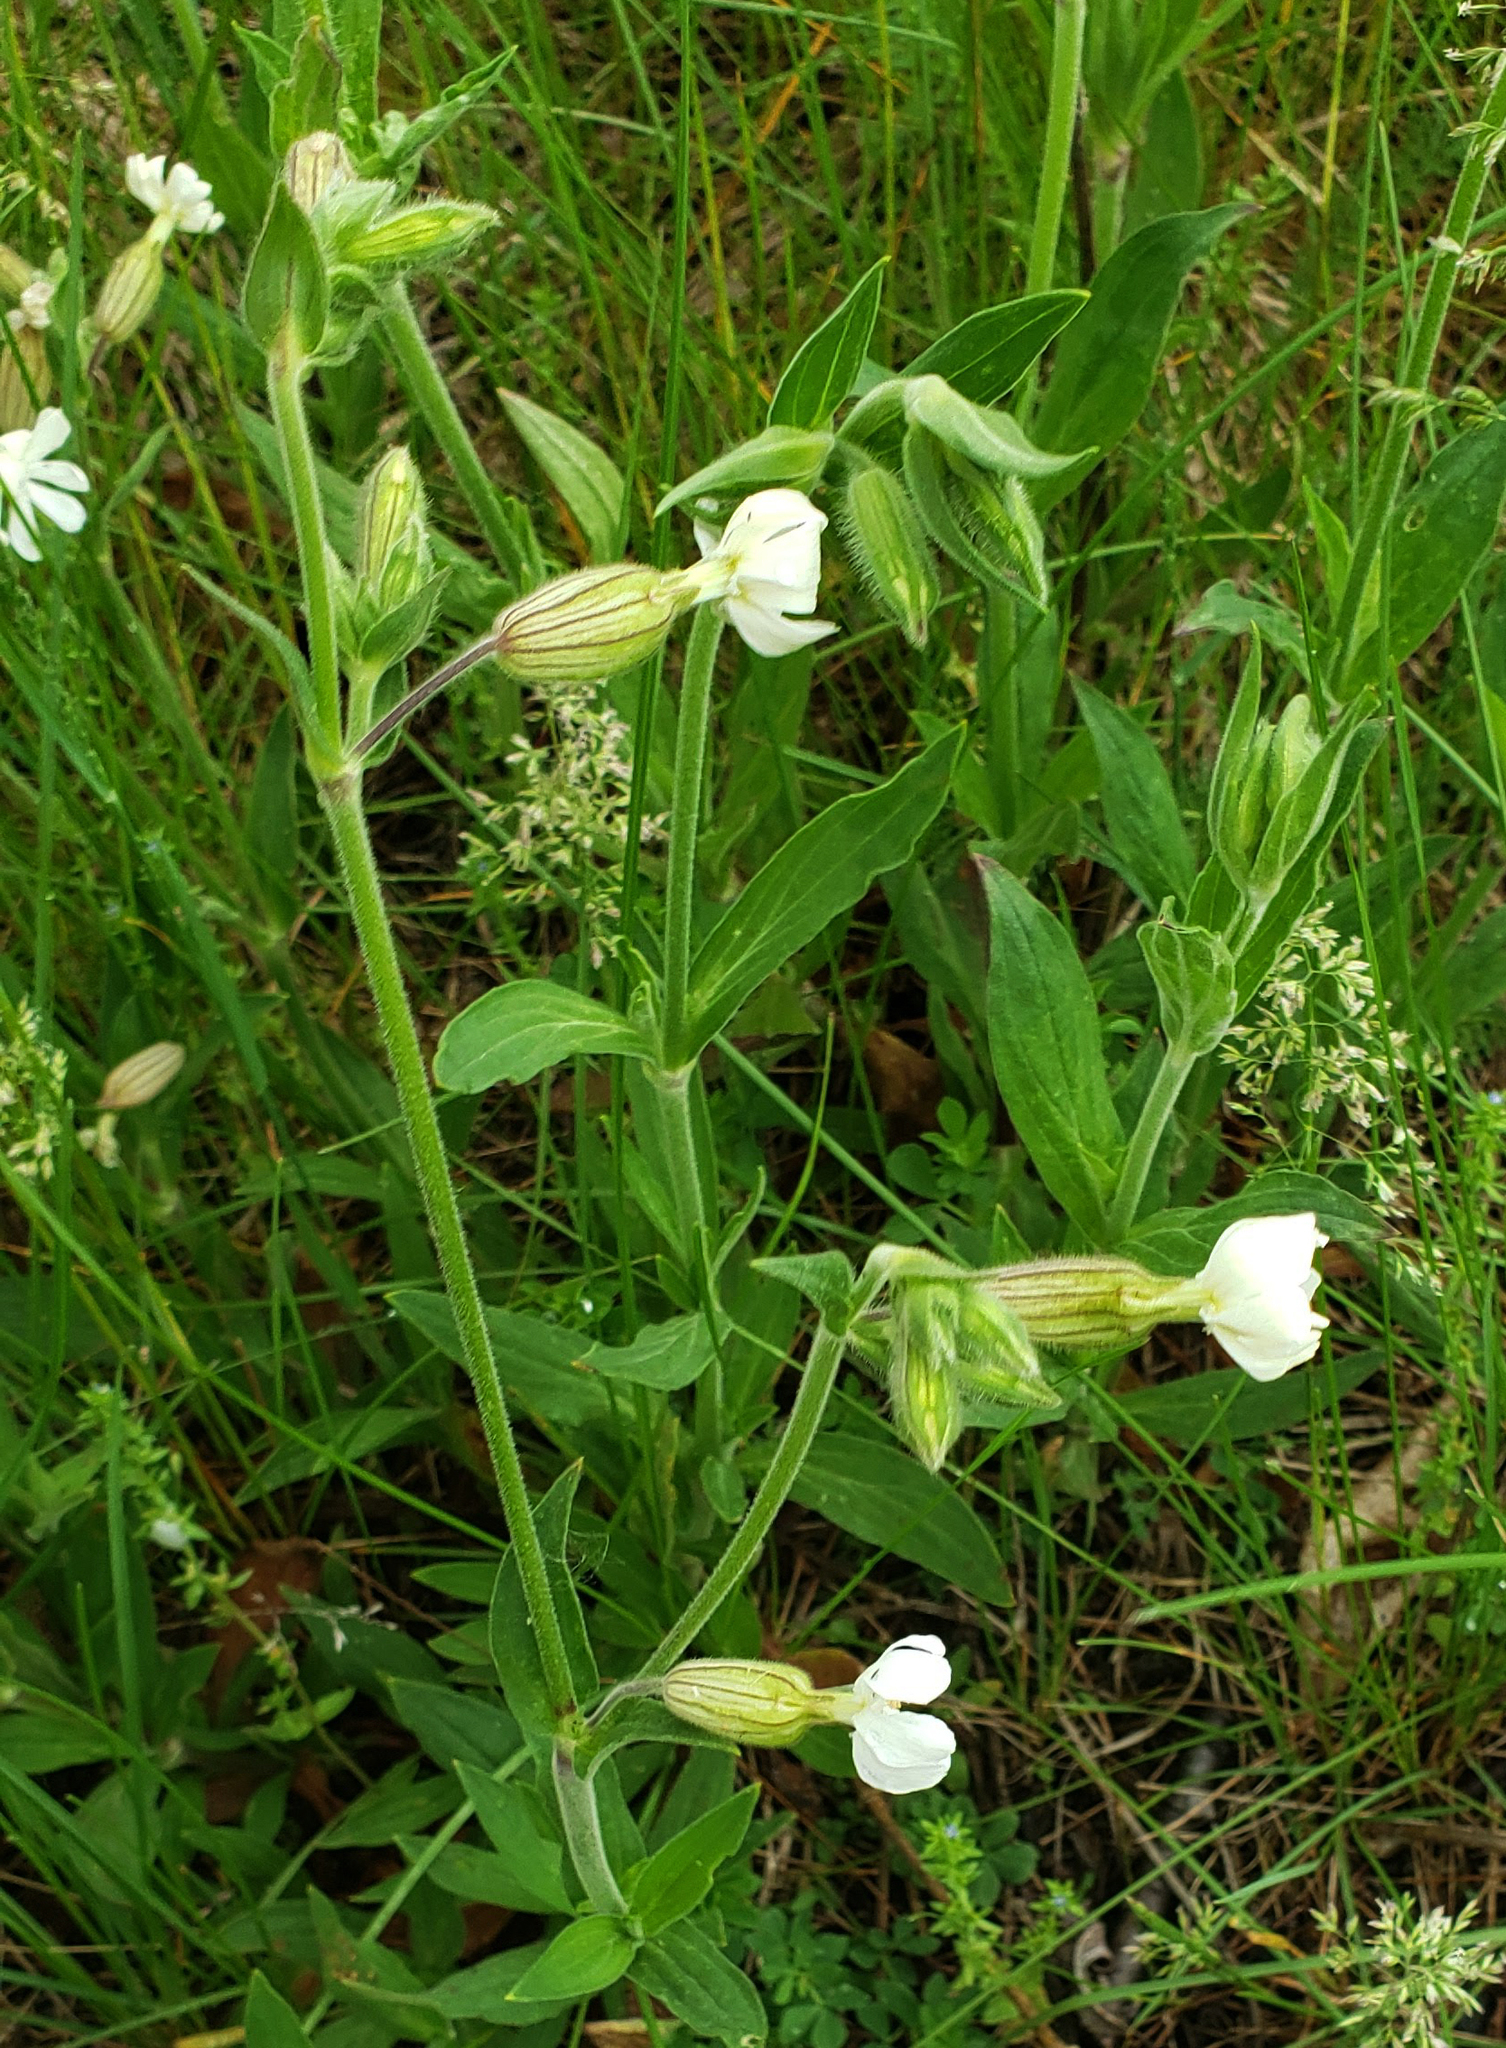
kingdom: Plantae
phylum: Tracheophyta
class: Magnoliopsida
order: Caryophyllales
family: Caryophyllaceae
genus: Silene
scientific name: Silene latifolia
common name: White campion
